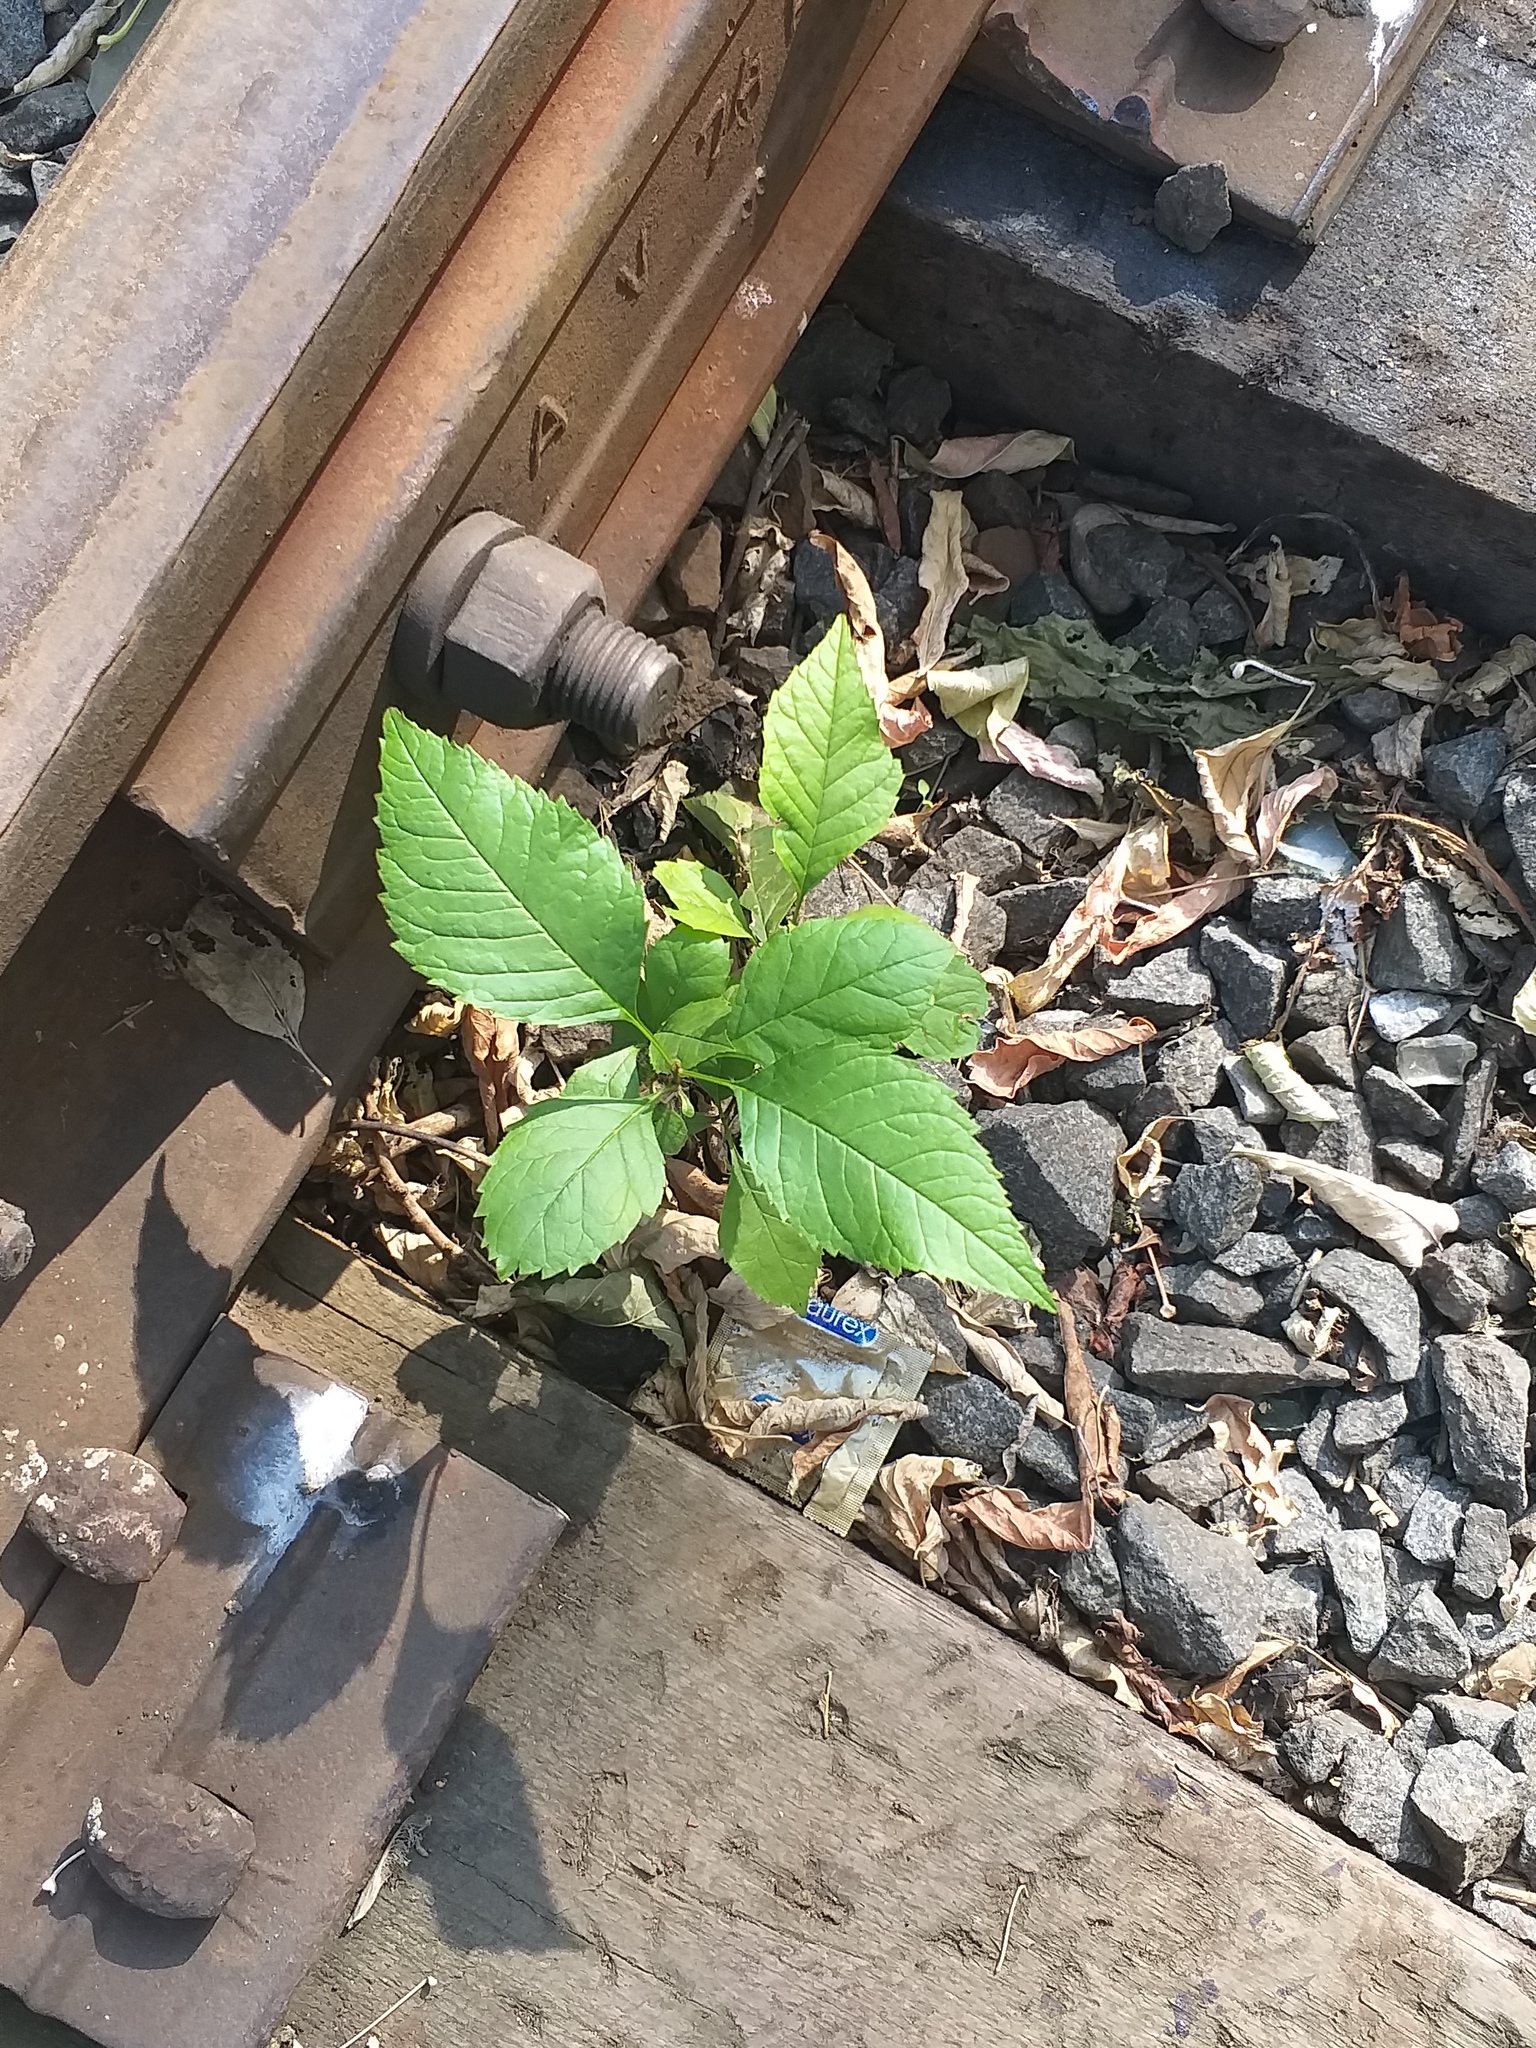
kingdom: Plantae
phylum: Tracheophyta
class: Magnoliopsida
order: Lamiales
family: Oleaceae
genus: Fraxinus
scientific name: Fraxinus pennsylvanica
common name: Green ash
